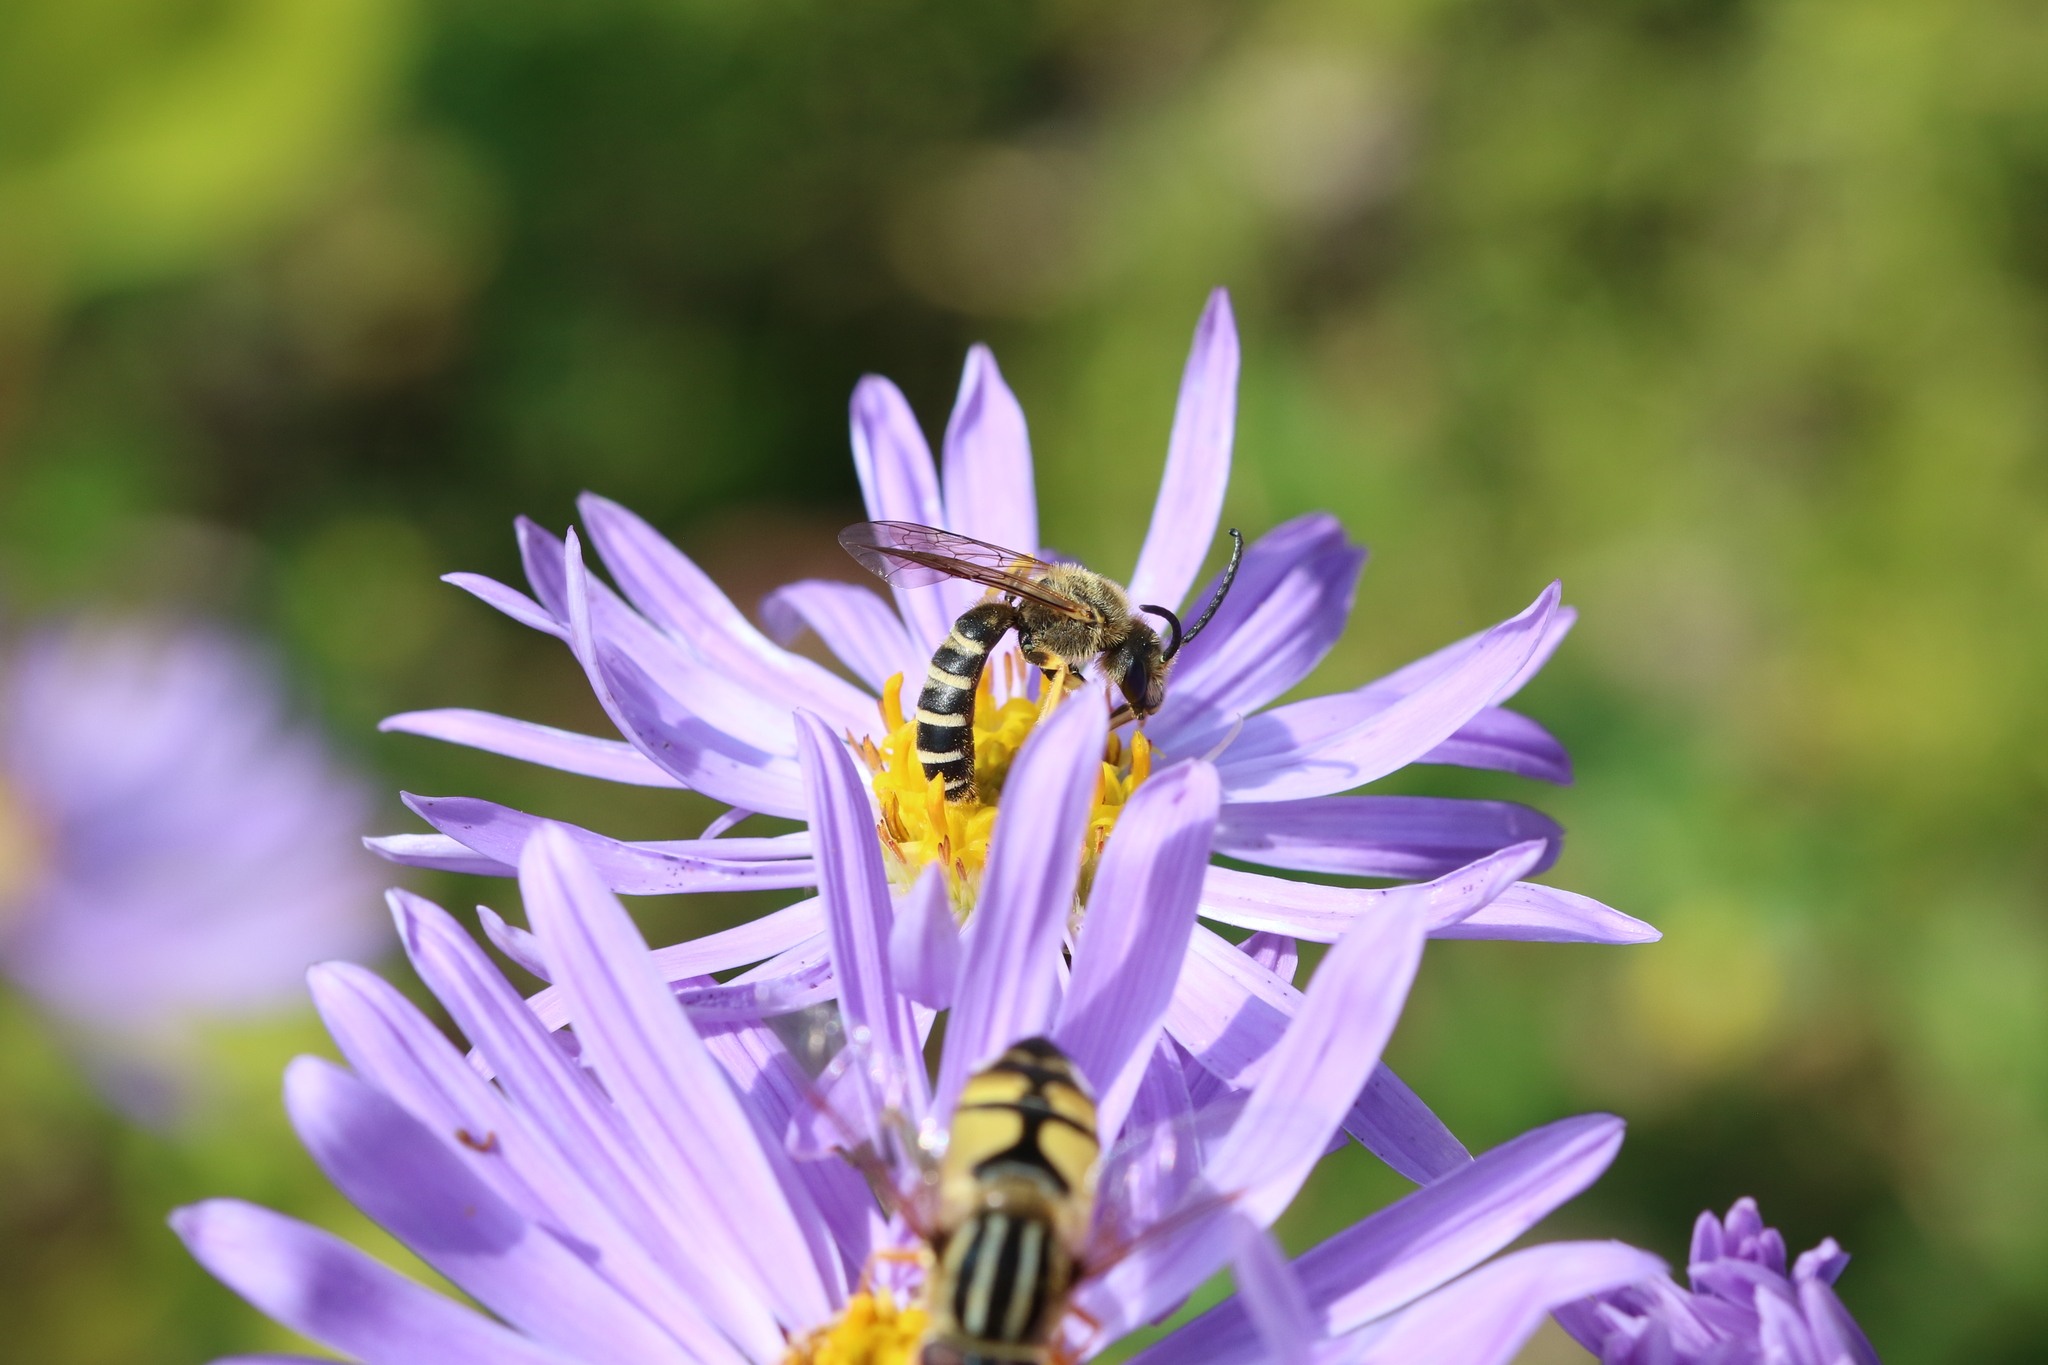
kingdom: Animalia
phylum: Arthropoda
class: Insecta
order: Hymenoptera
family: Halictidae
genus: Halictus
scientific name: Halictus scabiosae
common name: Great banded furrow bee
